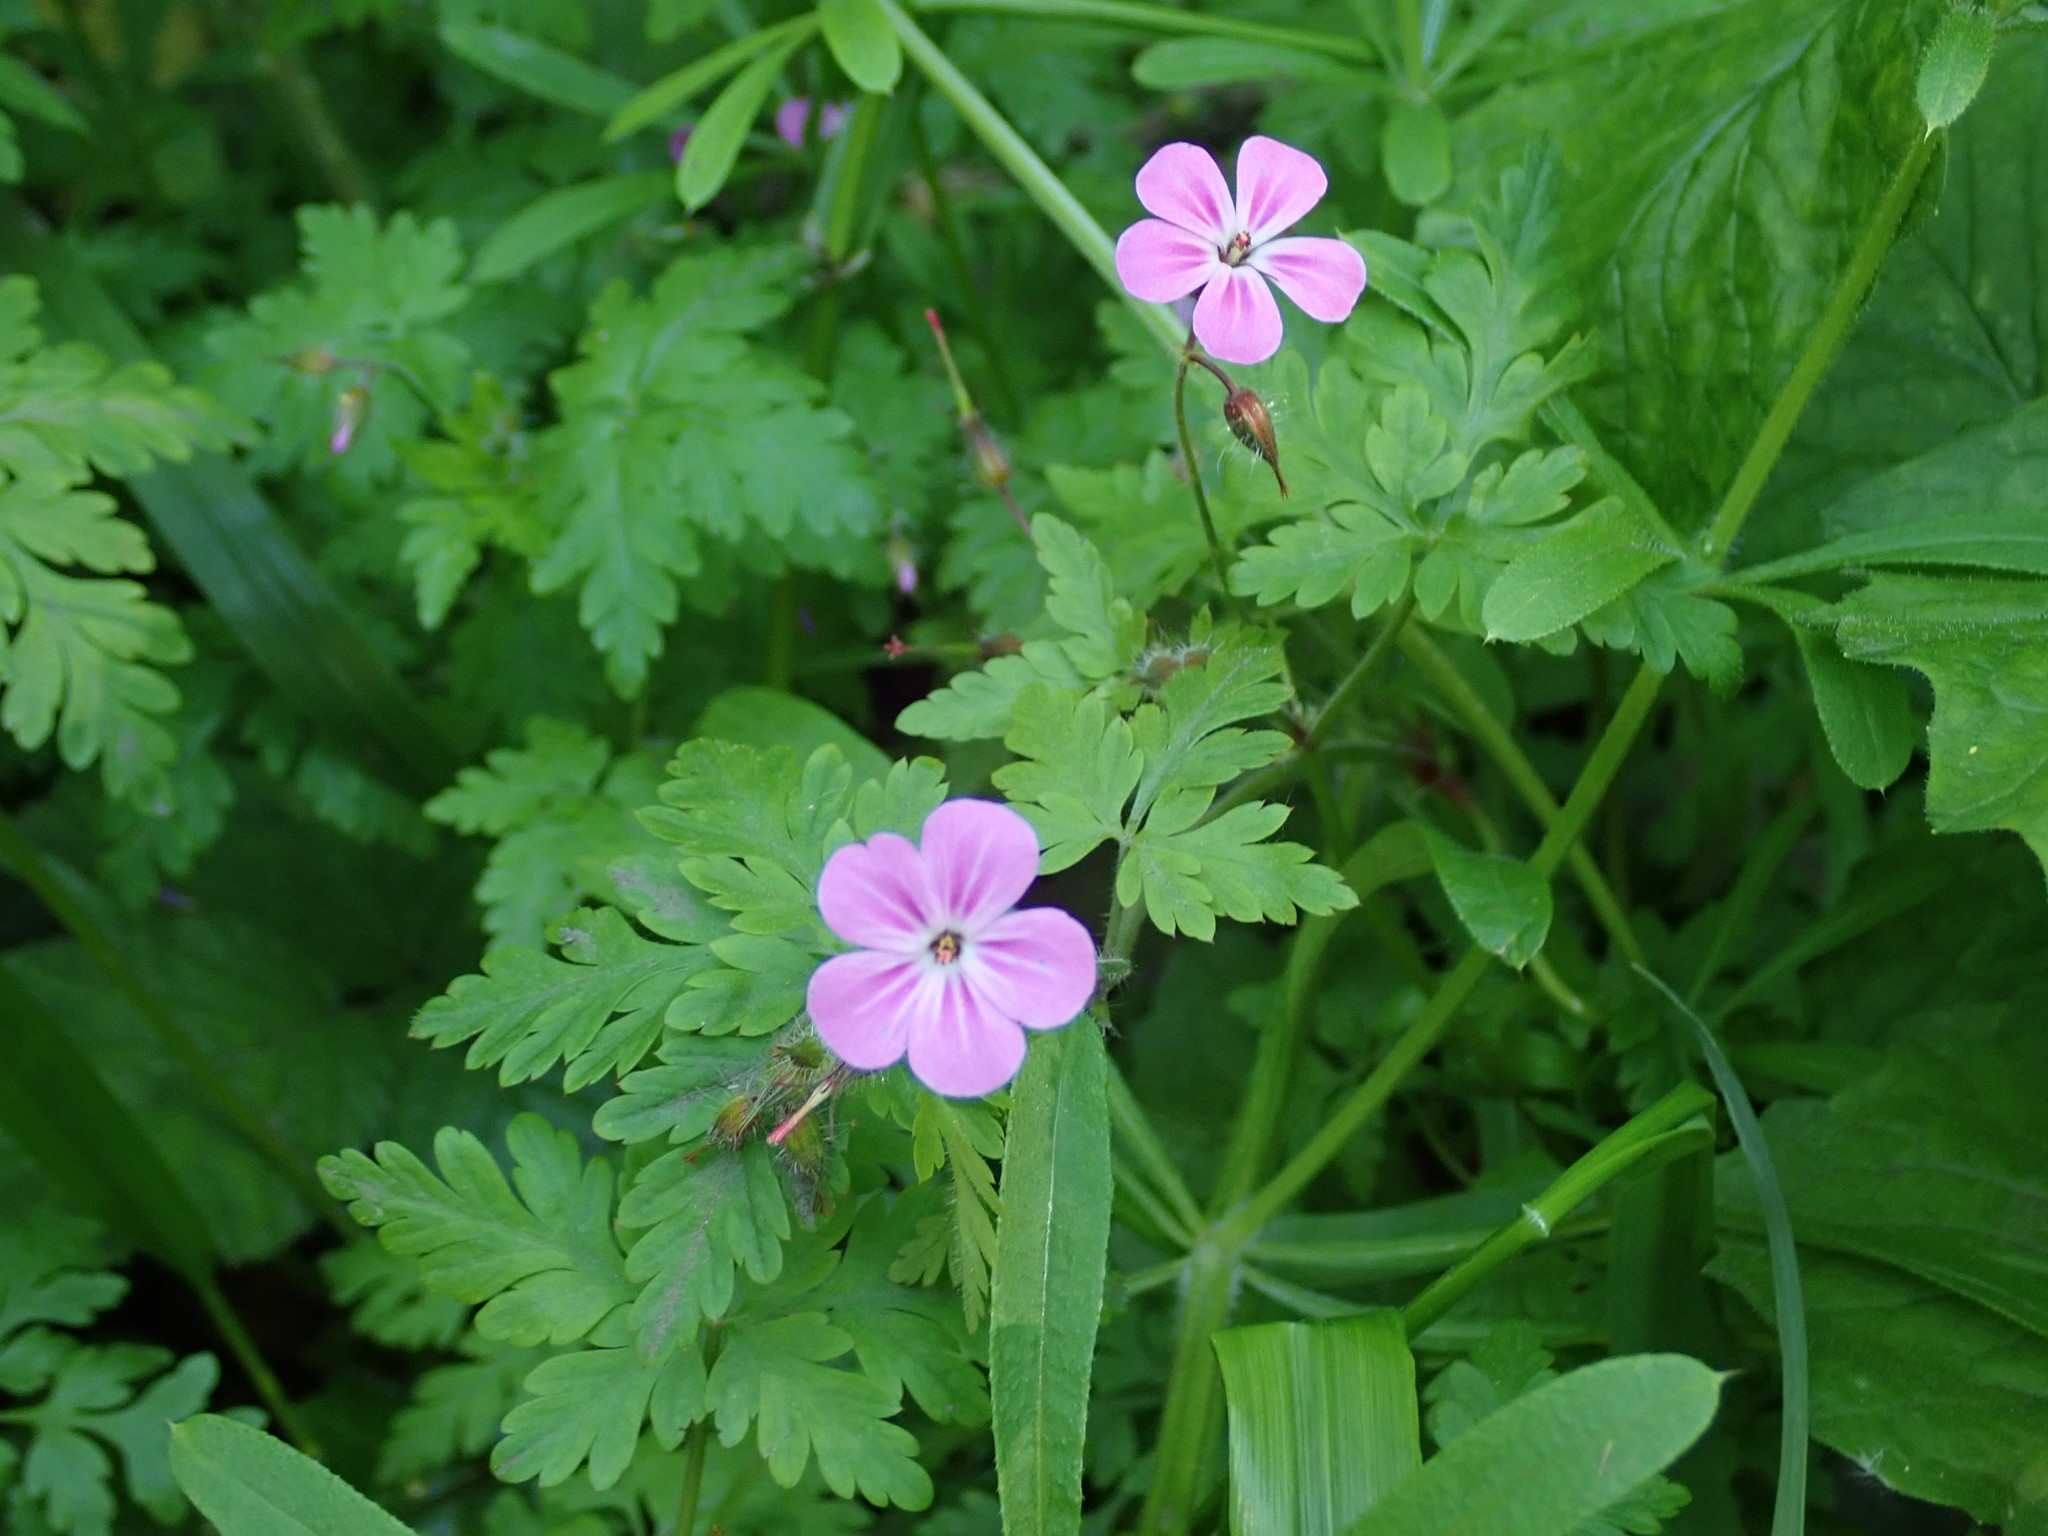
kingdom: Plantae
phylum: Tracheophyta
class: Magnoliopsida
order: Geraniales
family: Geraniaceae
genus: Geranium
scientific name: Geranium robertianum
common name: Herb-robert
